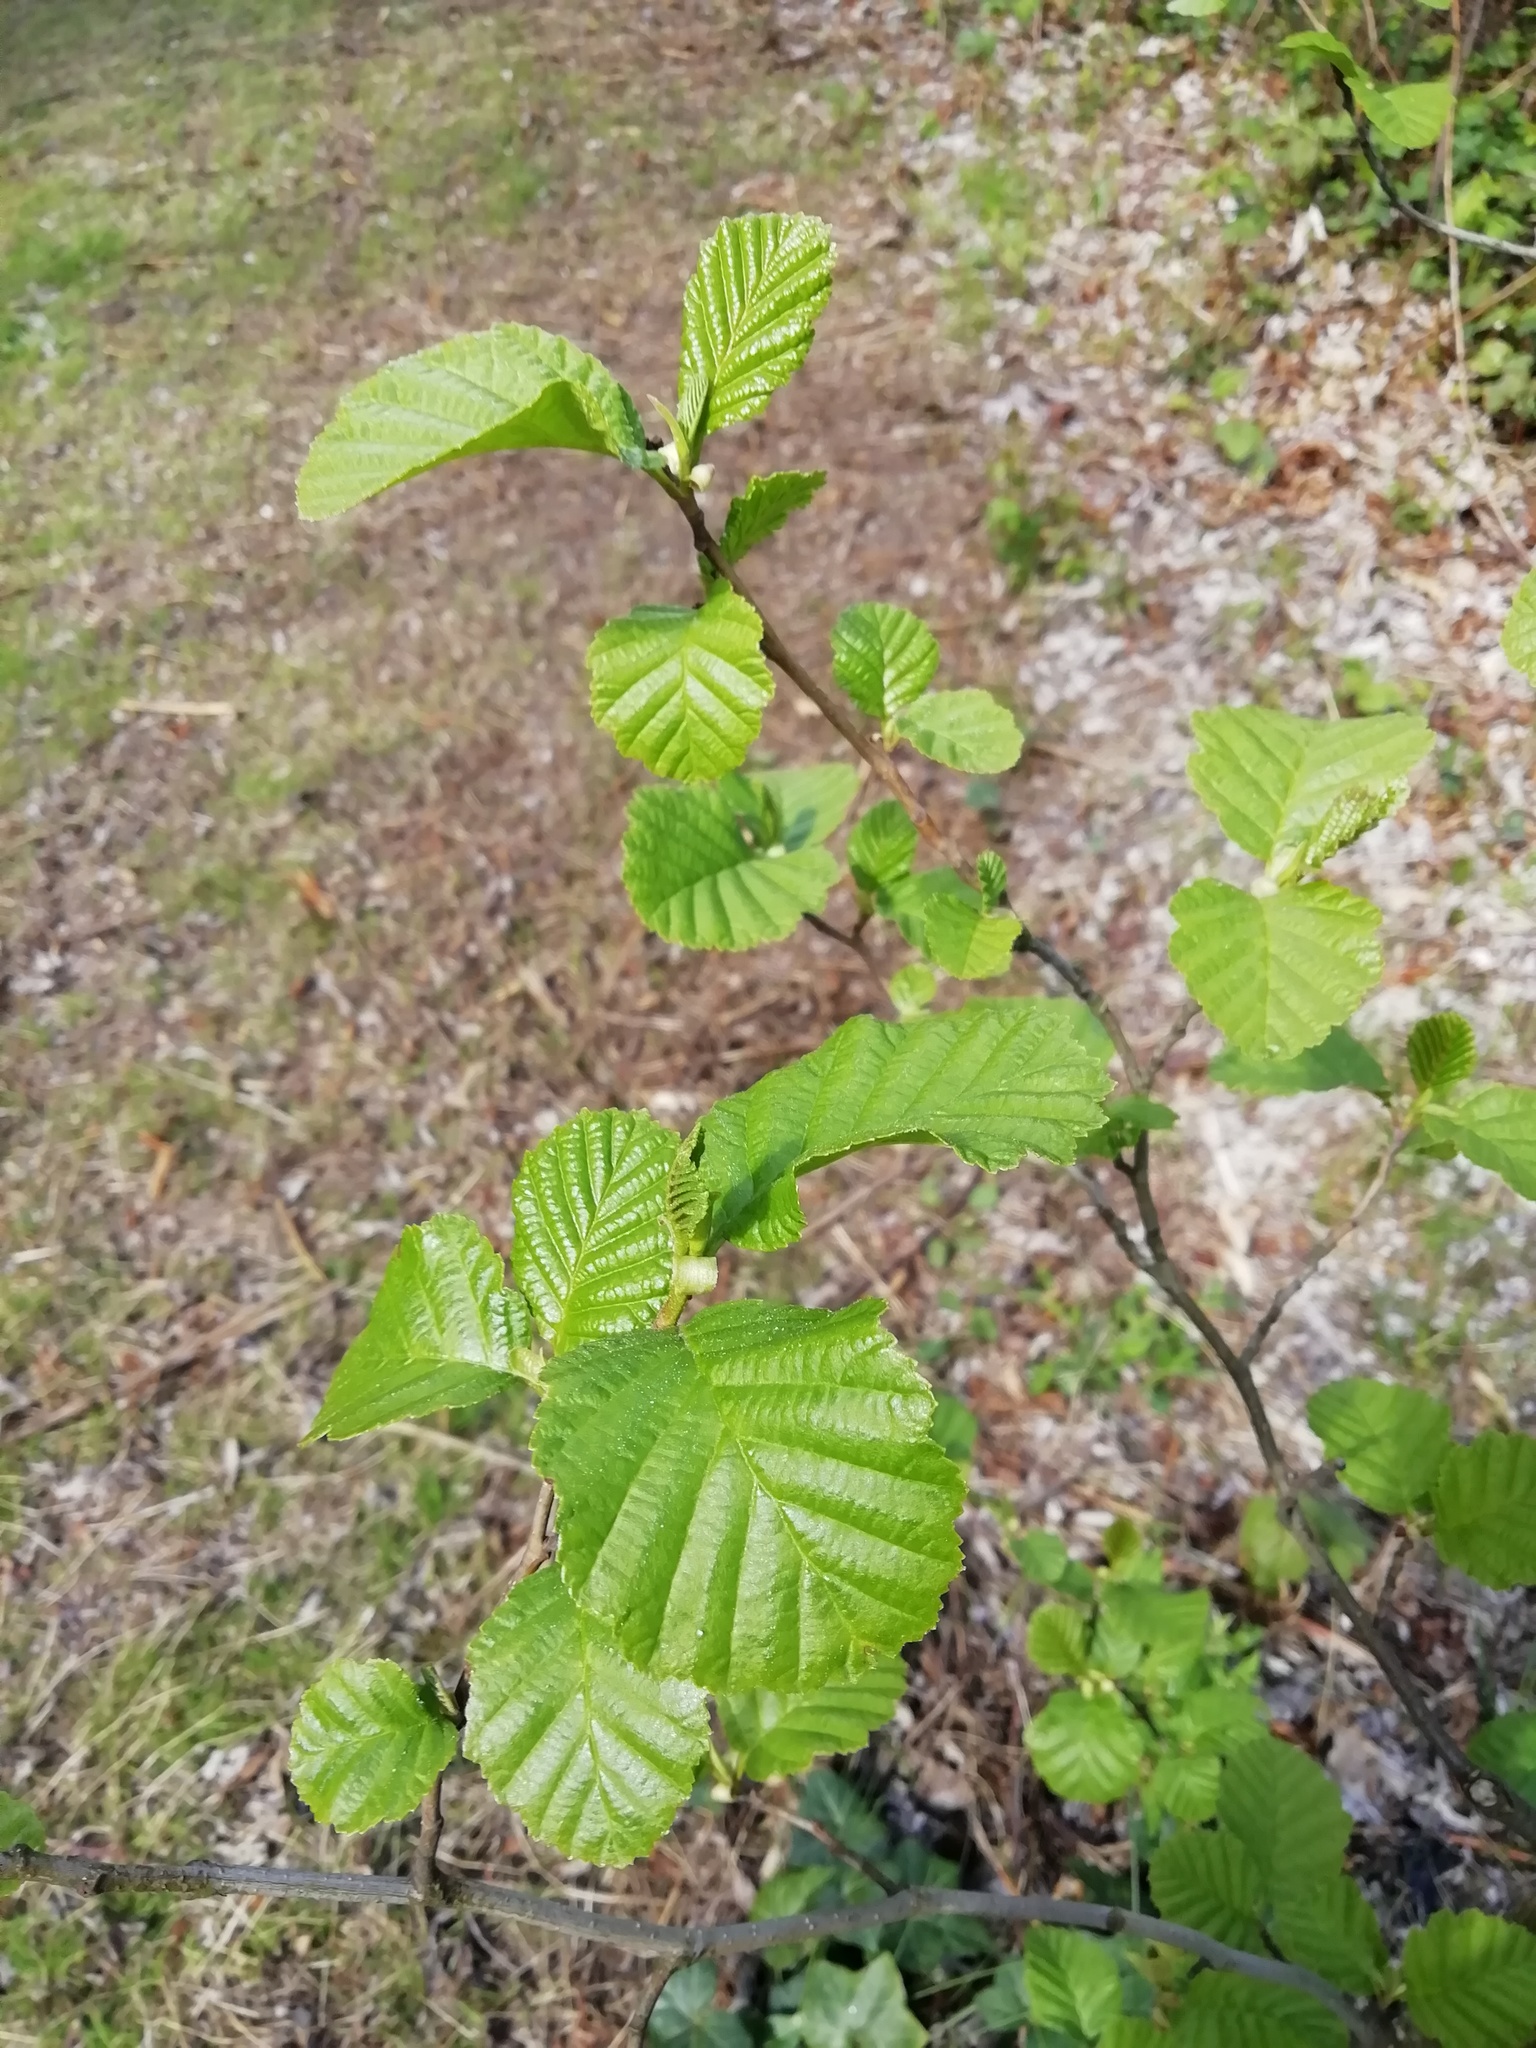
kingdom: Plantae
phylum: Tracheophyta
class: Magnoliopsida
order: Fagales
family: Betulaceae
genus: Alnus
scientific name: Alnus glutinosa
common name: Black alder
